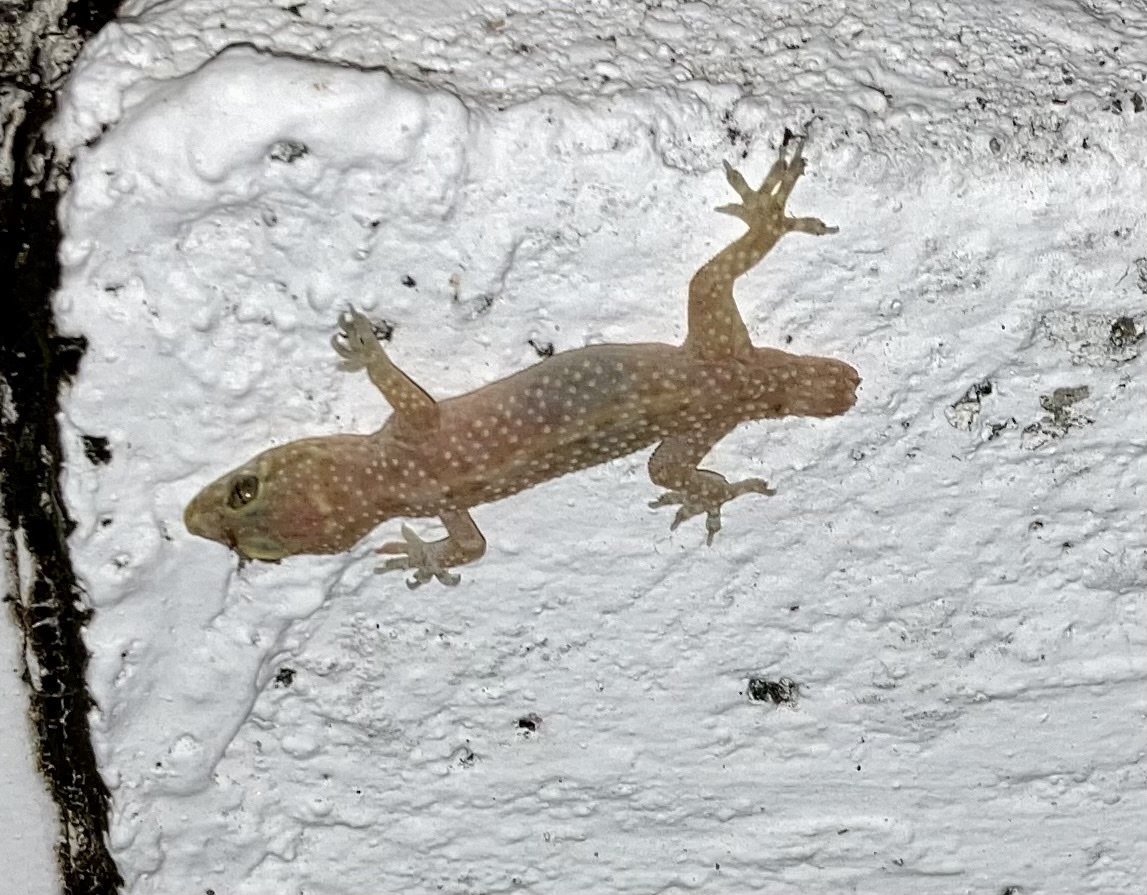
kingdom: Animalia
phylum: Chordata
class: Squamata
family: Gekkonidae
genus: Hemidactylus
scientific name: Hemidactylus turcicus
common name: Turkish gecko
